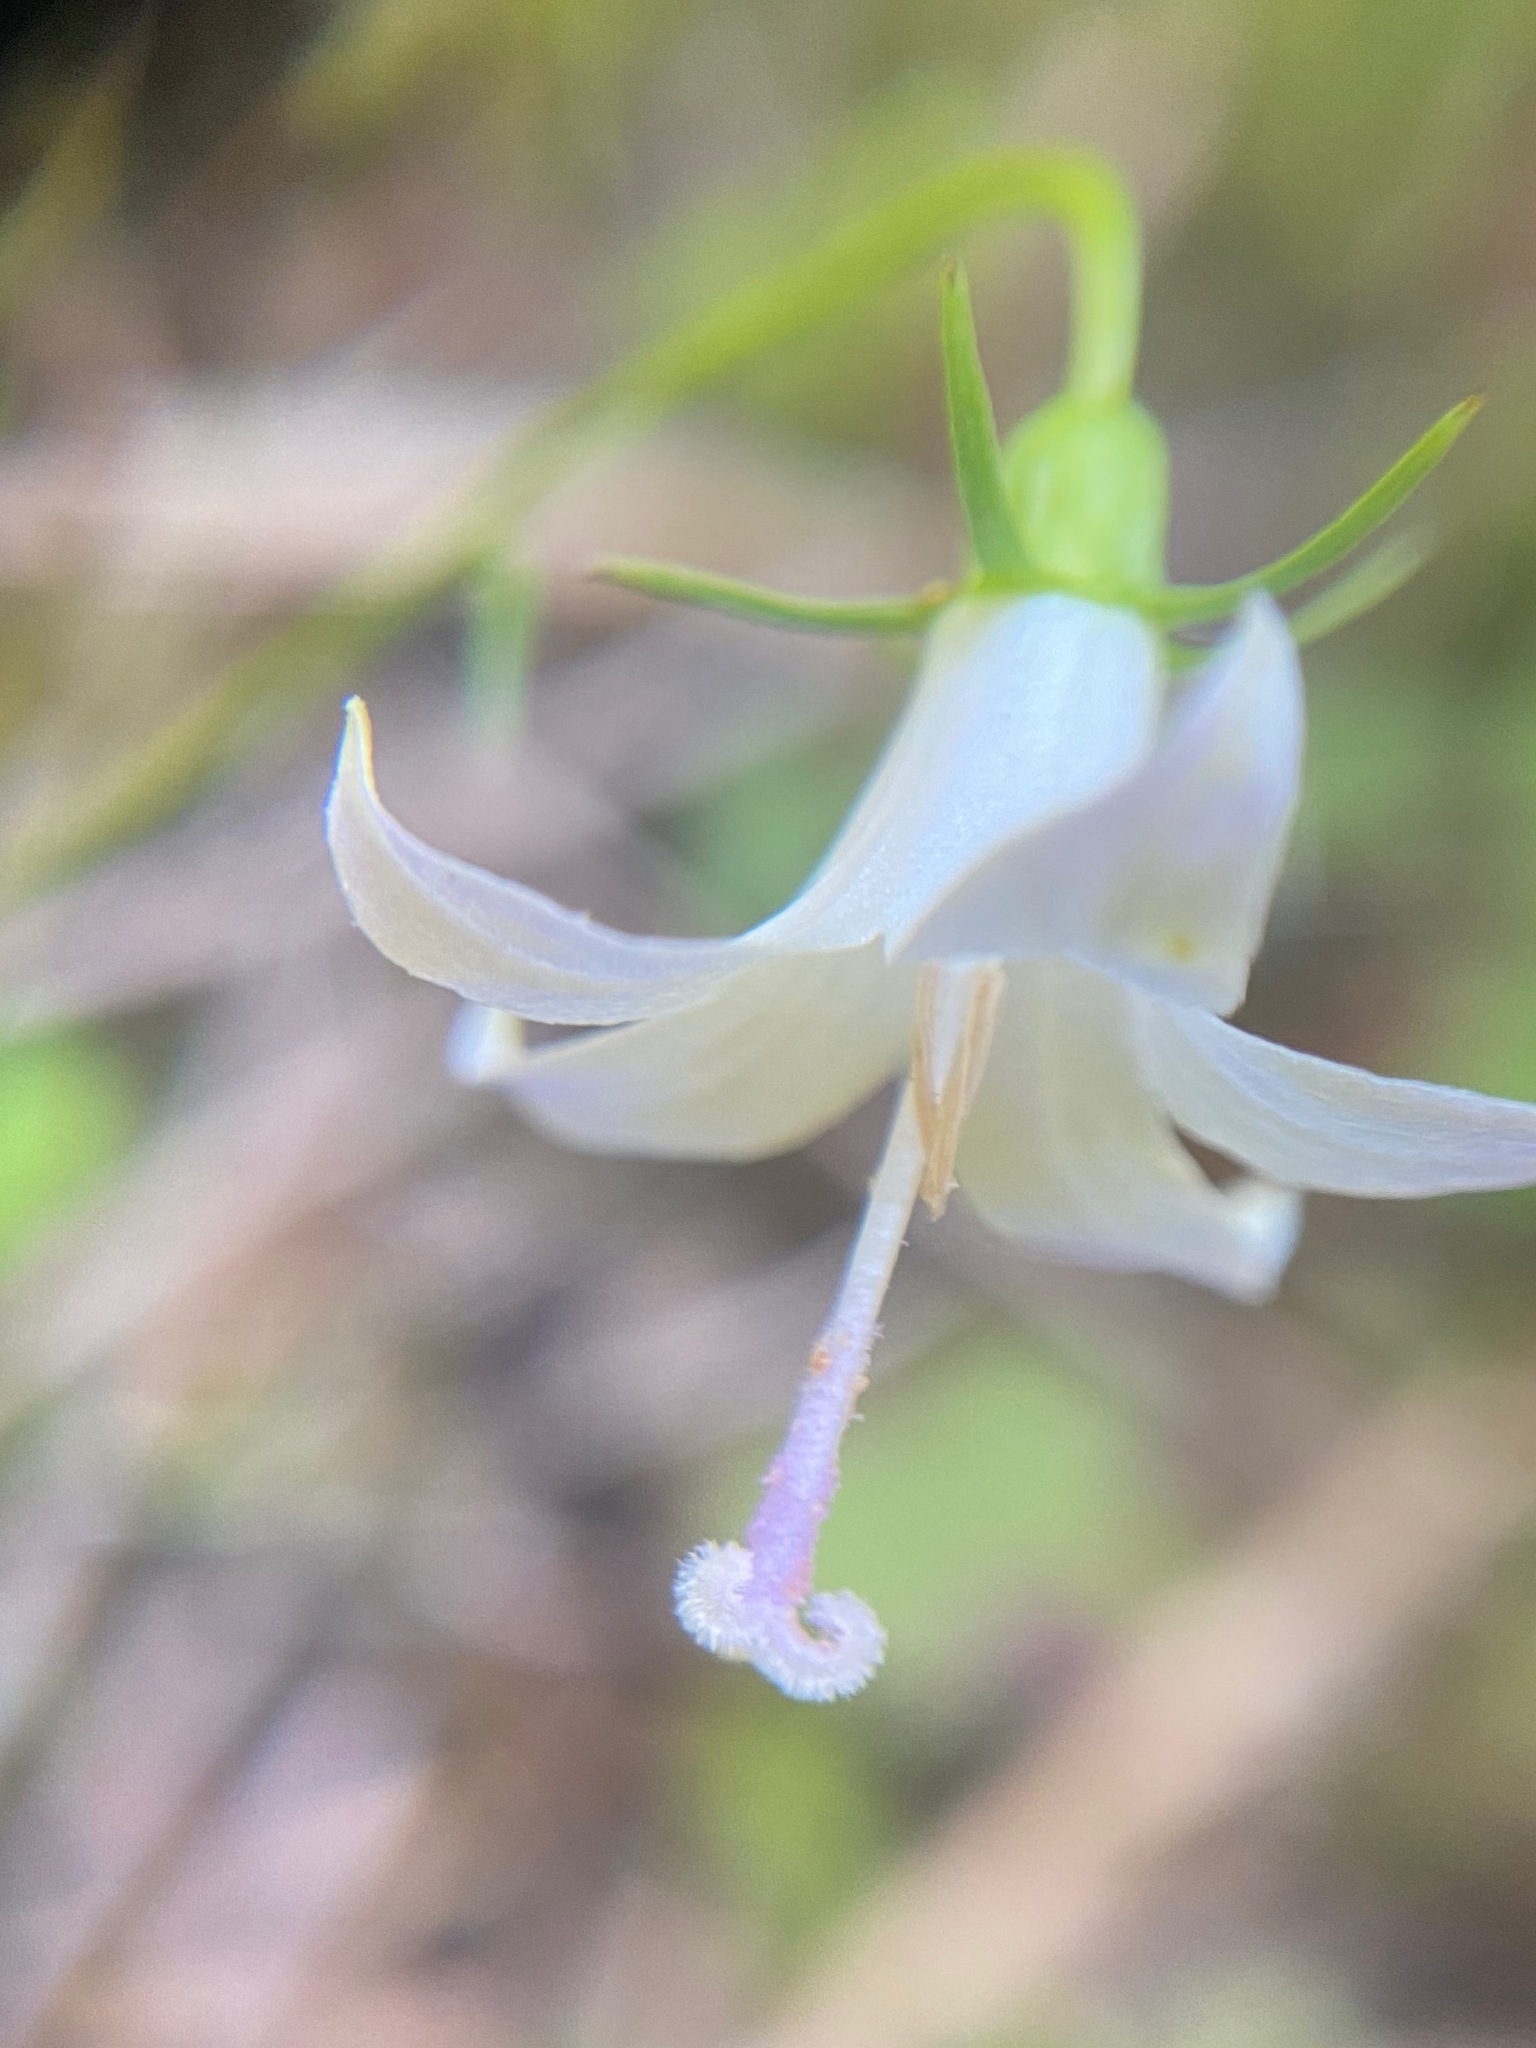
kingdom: Plantae
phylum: Tracheophyta
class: Magnoliopsida
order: Asterales
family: Campanulaceae
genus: Campanula
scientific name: Campanula scouleri
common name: Scouler's harebell
